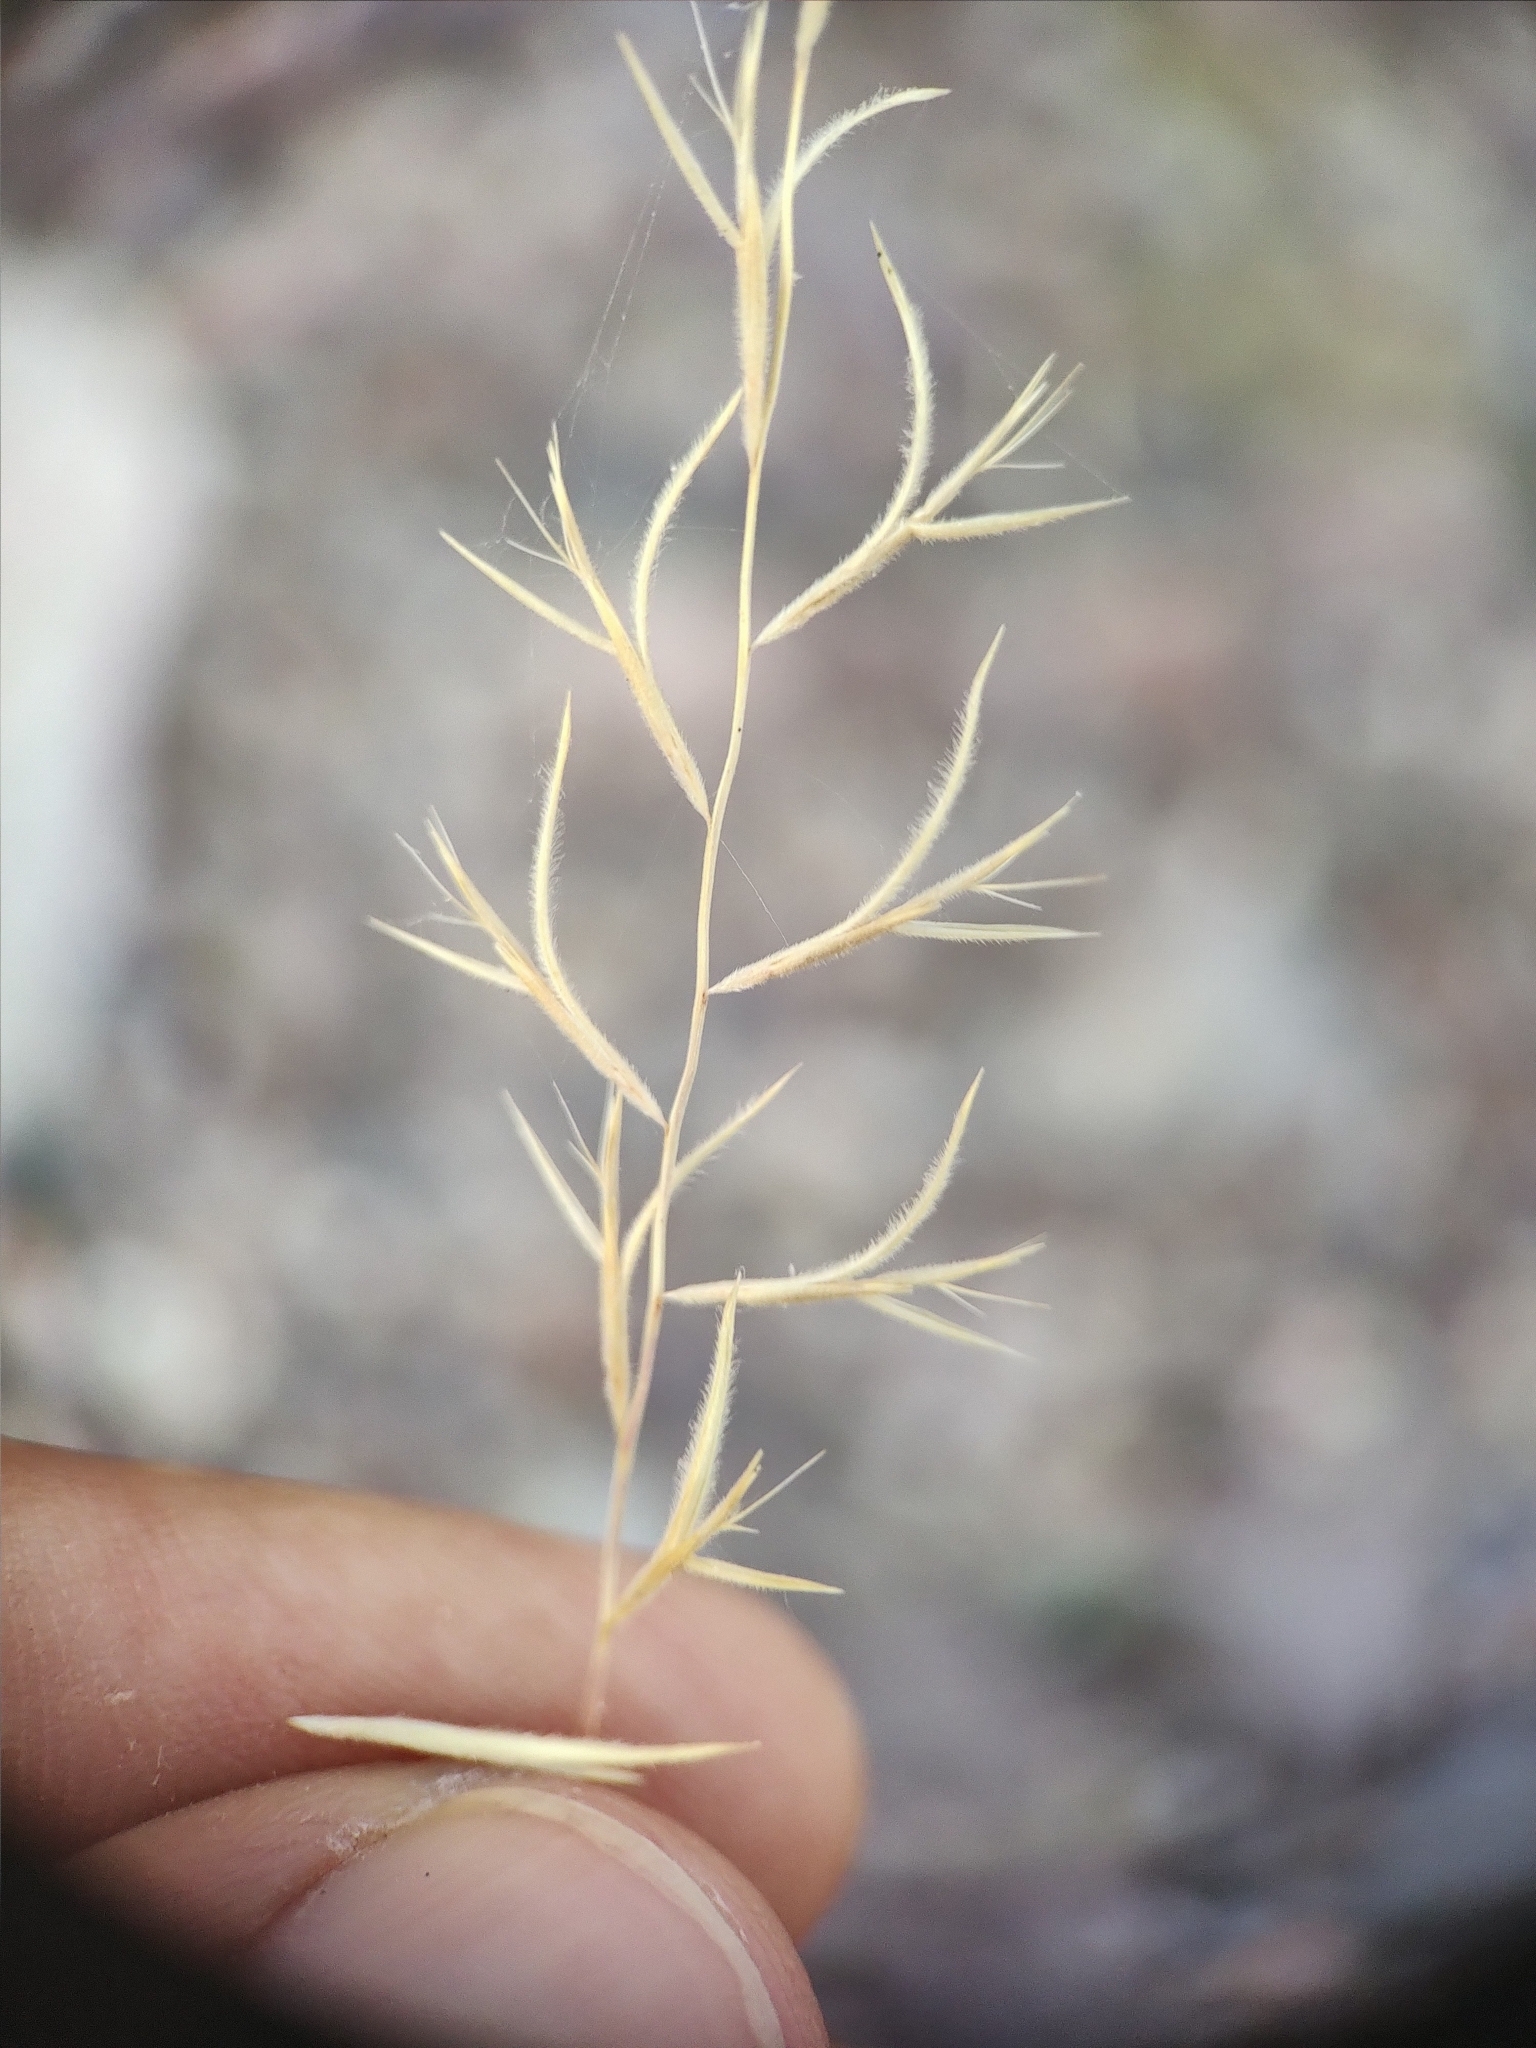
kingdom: Plantae
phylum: Tracheophyta
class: Liliopsida
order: Poales
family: Poaceae
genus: Bouteloua
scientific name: Bouteloua aristidoides
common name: Needle grama
